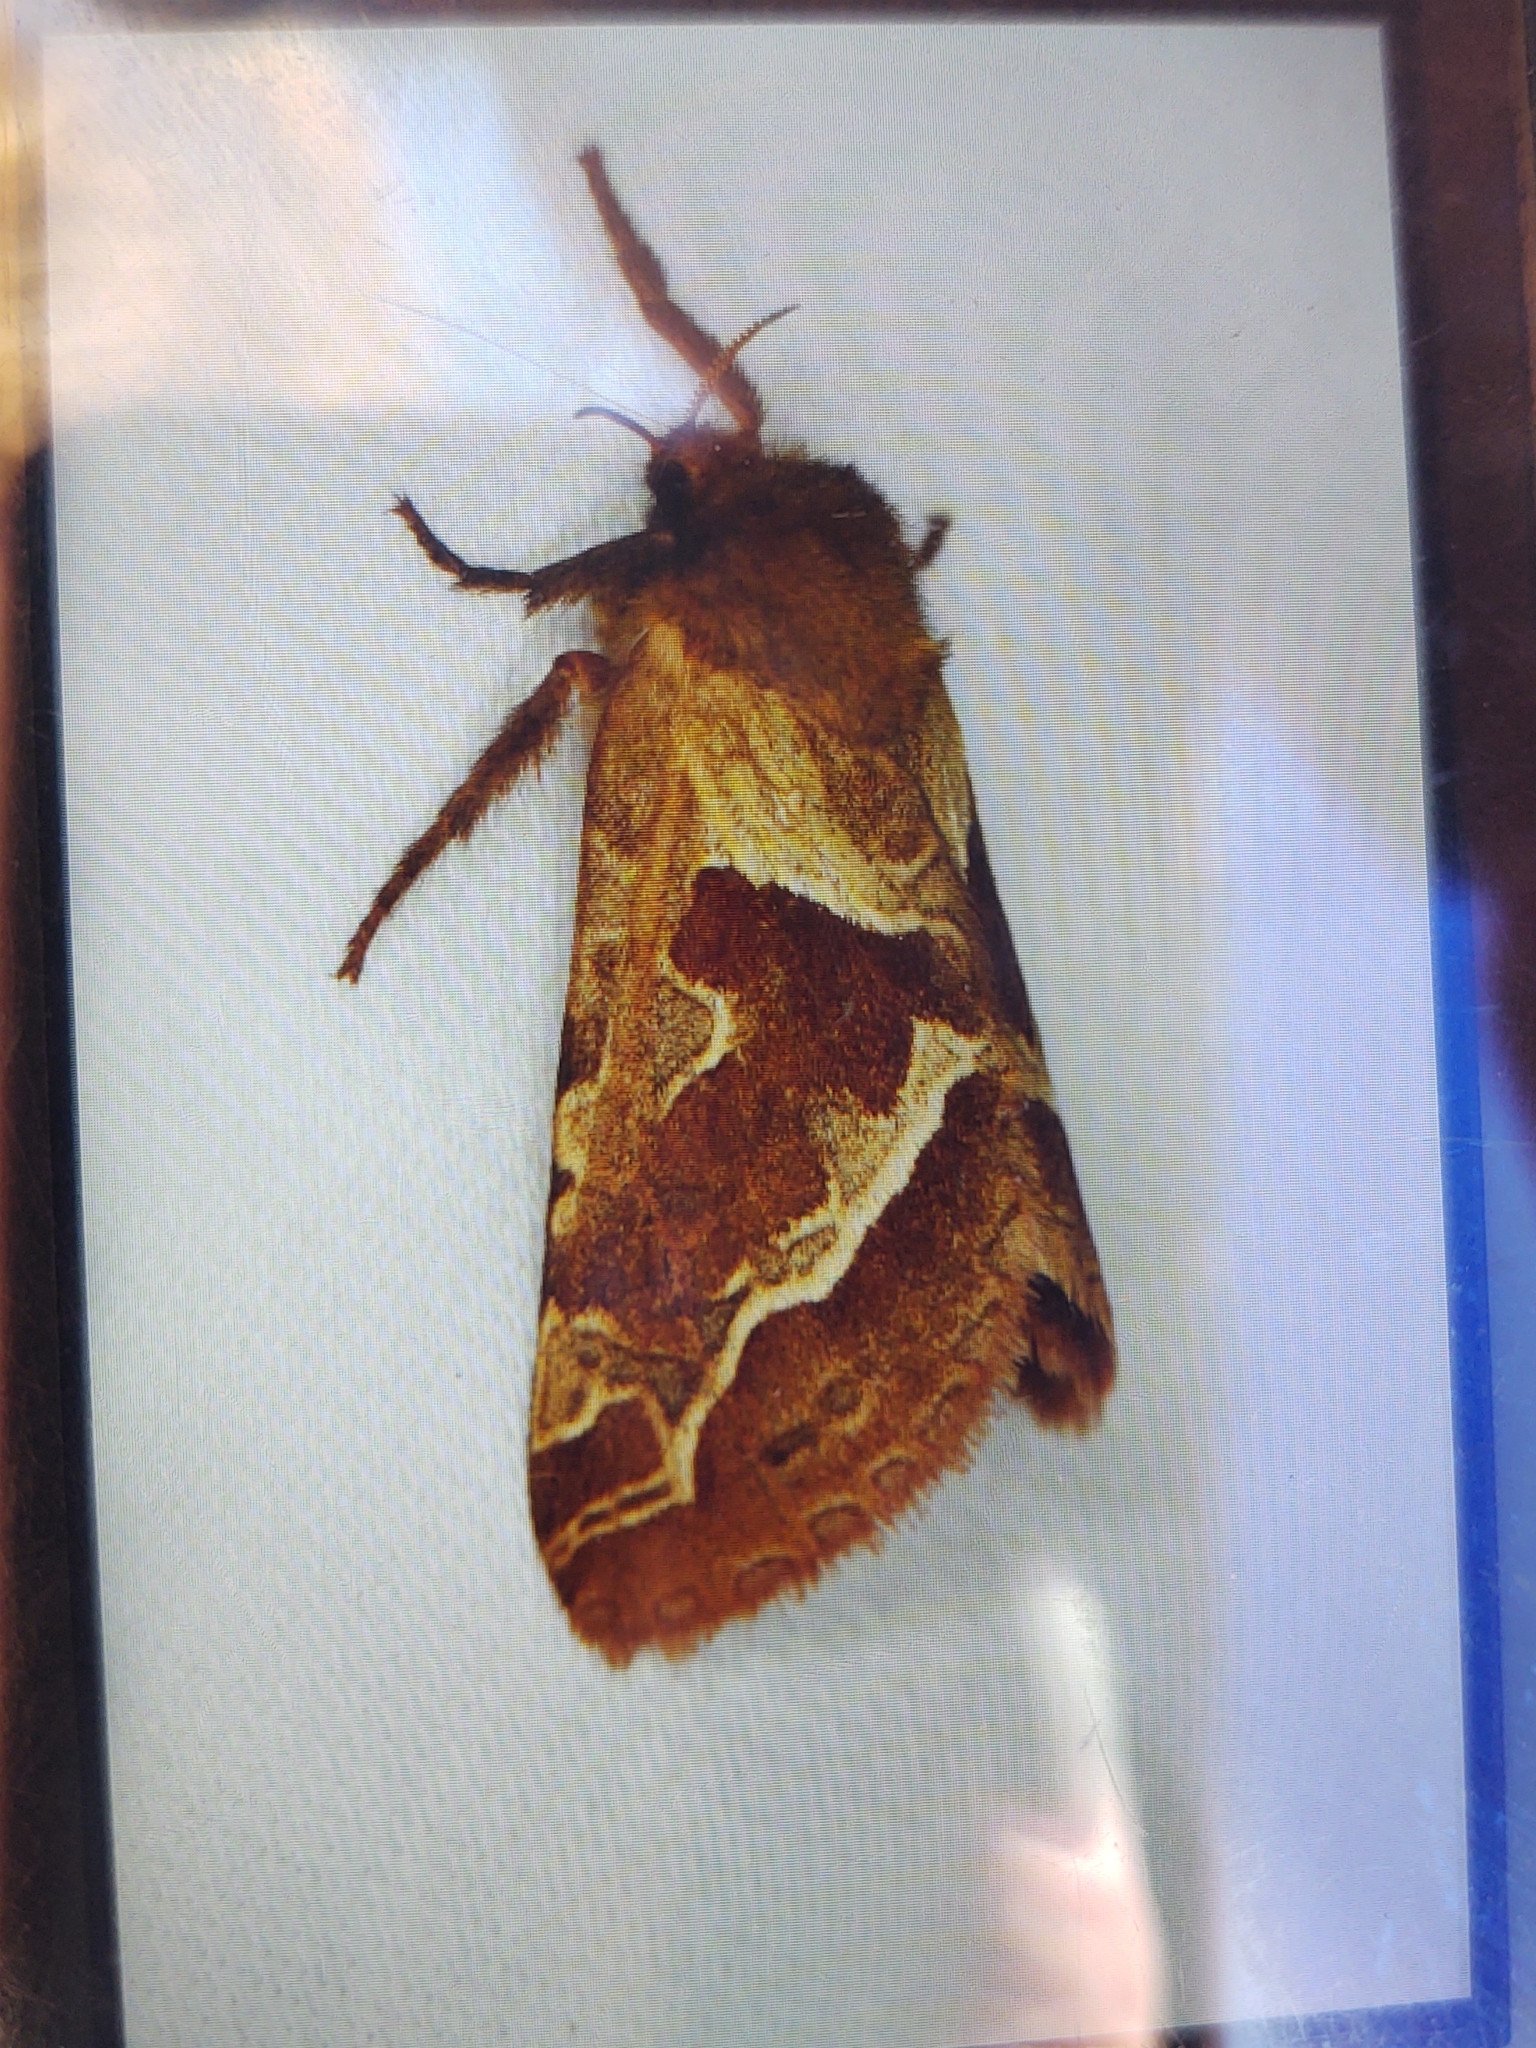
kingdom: Animalia
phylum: Arthropoda
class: Insecta
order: Lepidoptera
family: Hepialidae
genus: Triodia
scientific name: Triodia sylvina
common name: Orange swift
